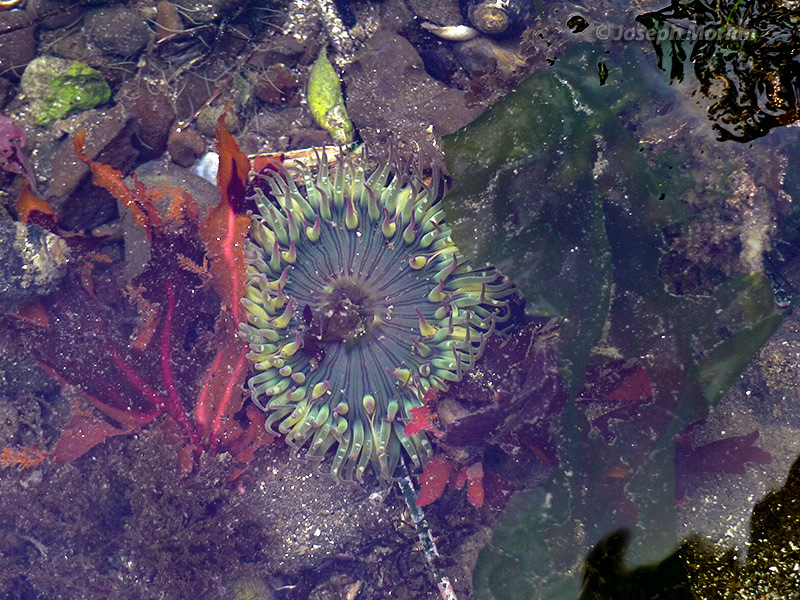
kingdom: Animalia
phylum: Cnidaria
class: Anthozoa
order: Actiniaria
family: Actiniidae
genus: Anthopleura
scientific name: Anthopleura sola
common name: Sun anemone
